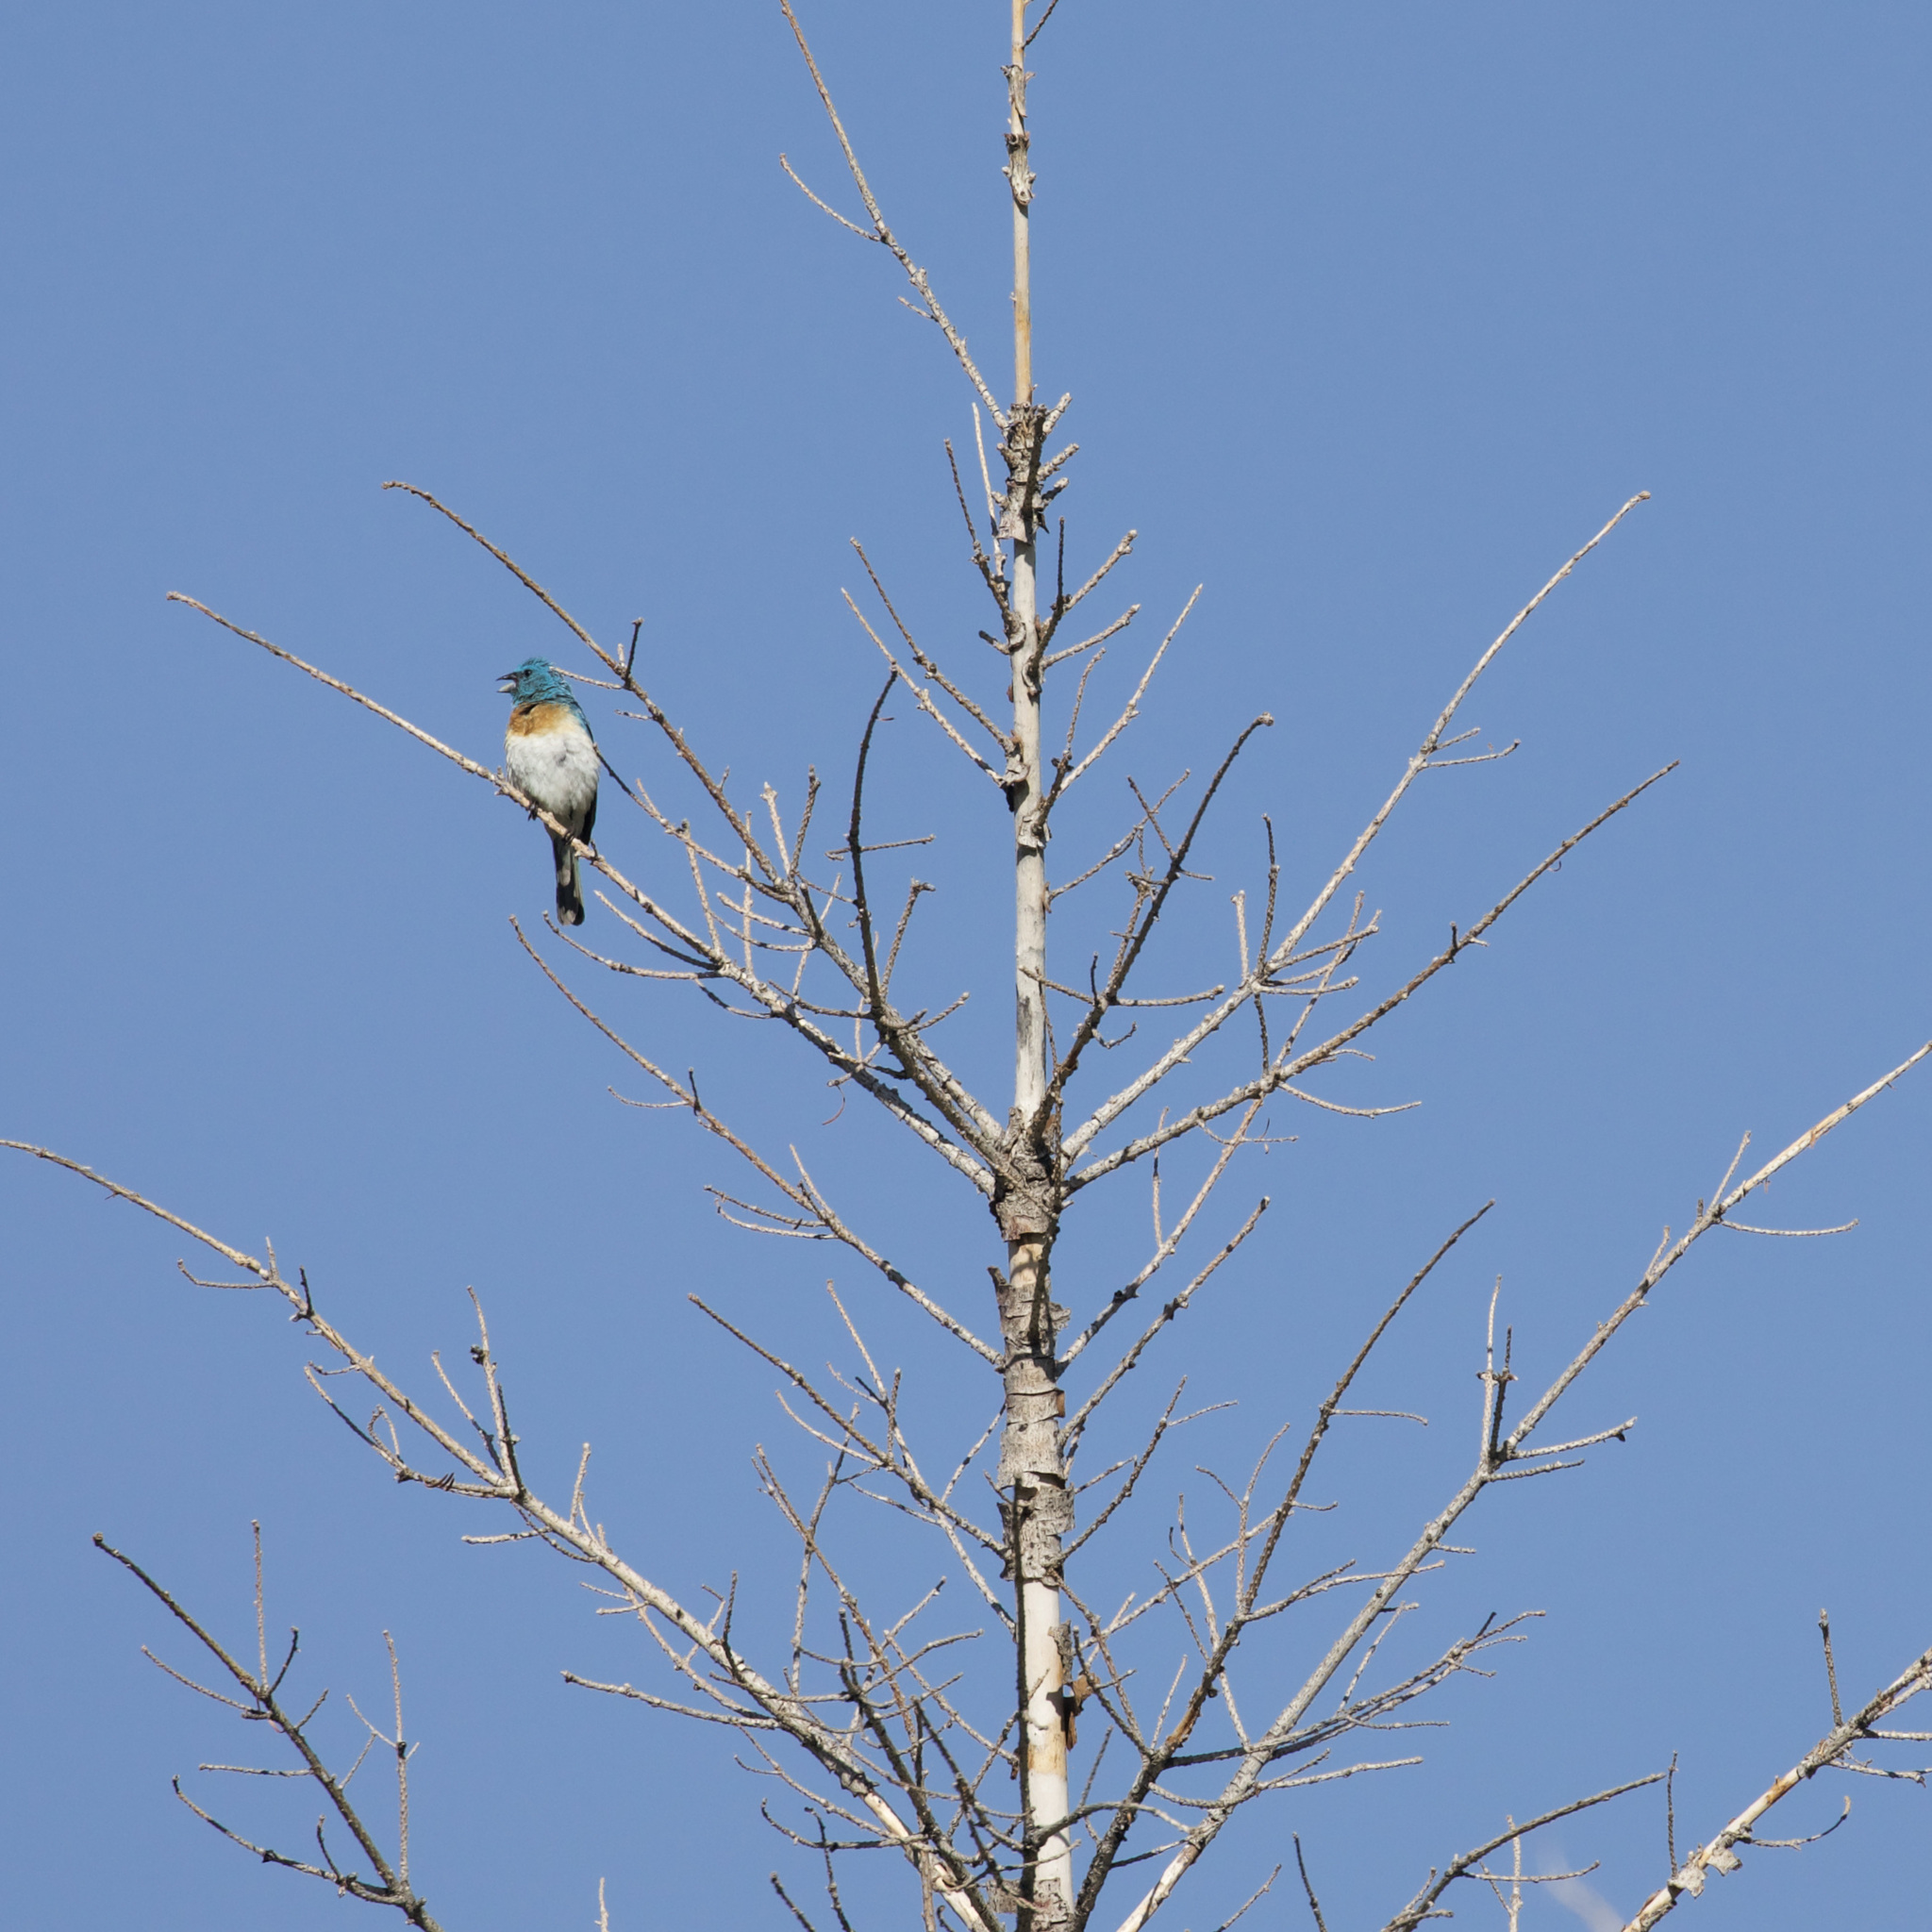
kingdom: Animalia
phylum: Chordata
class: Aves
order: Passeriformes
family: Cardinalidae
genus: Passerina
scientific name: Passerina amoena
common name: Lazuli bunting
